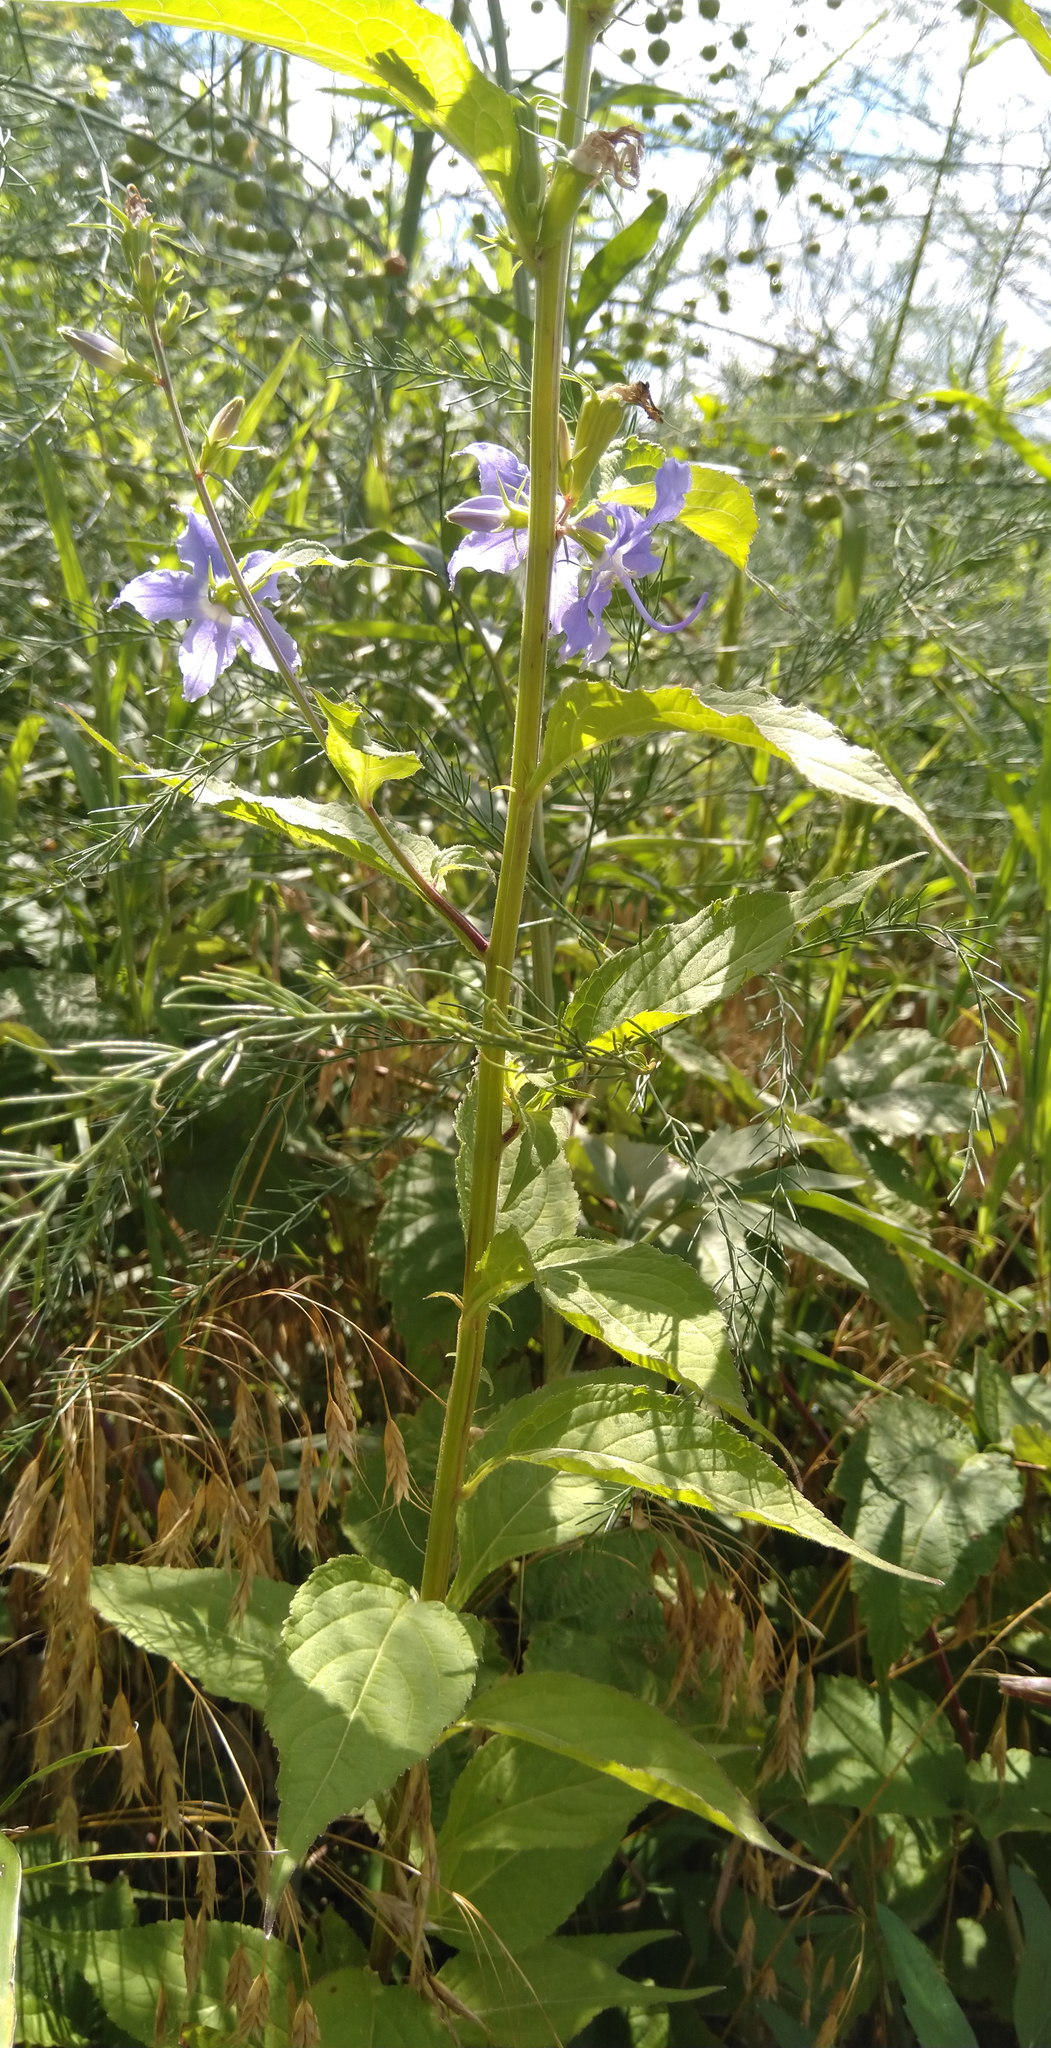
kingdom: Plantae
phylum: Tracheophyta
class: Magnoliopsida
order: Asterales
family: Campanulaceae
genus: Campanulastrum
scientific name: Campanulastrum americanum
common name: American bellflower
